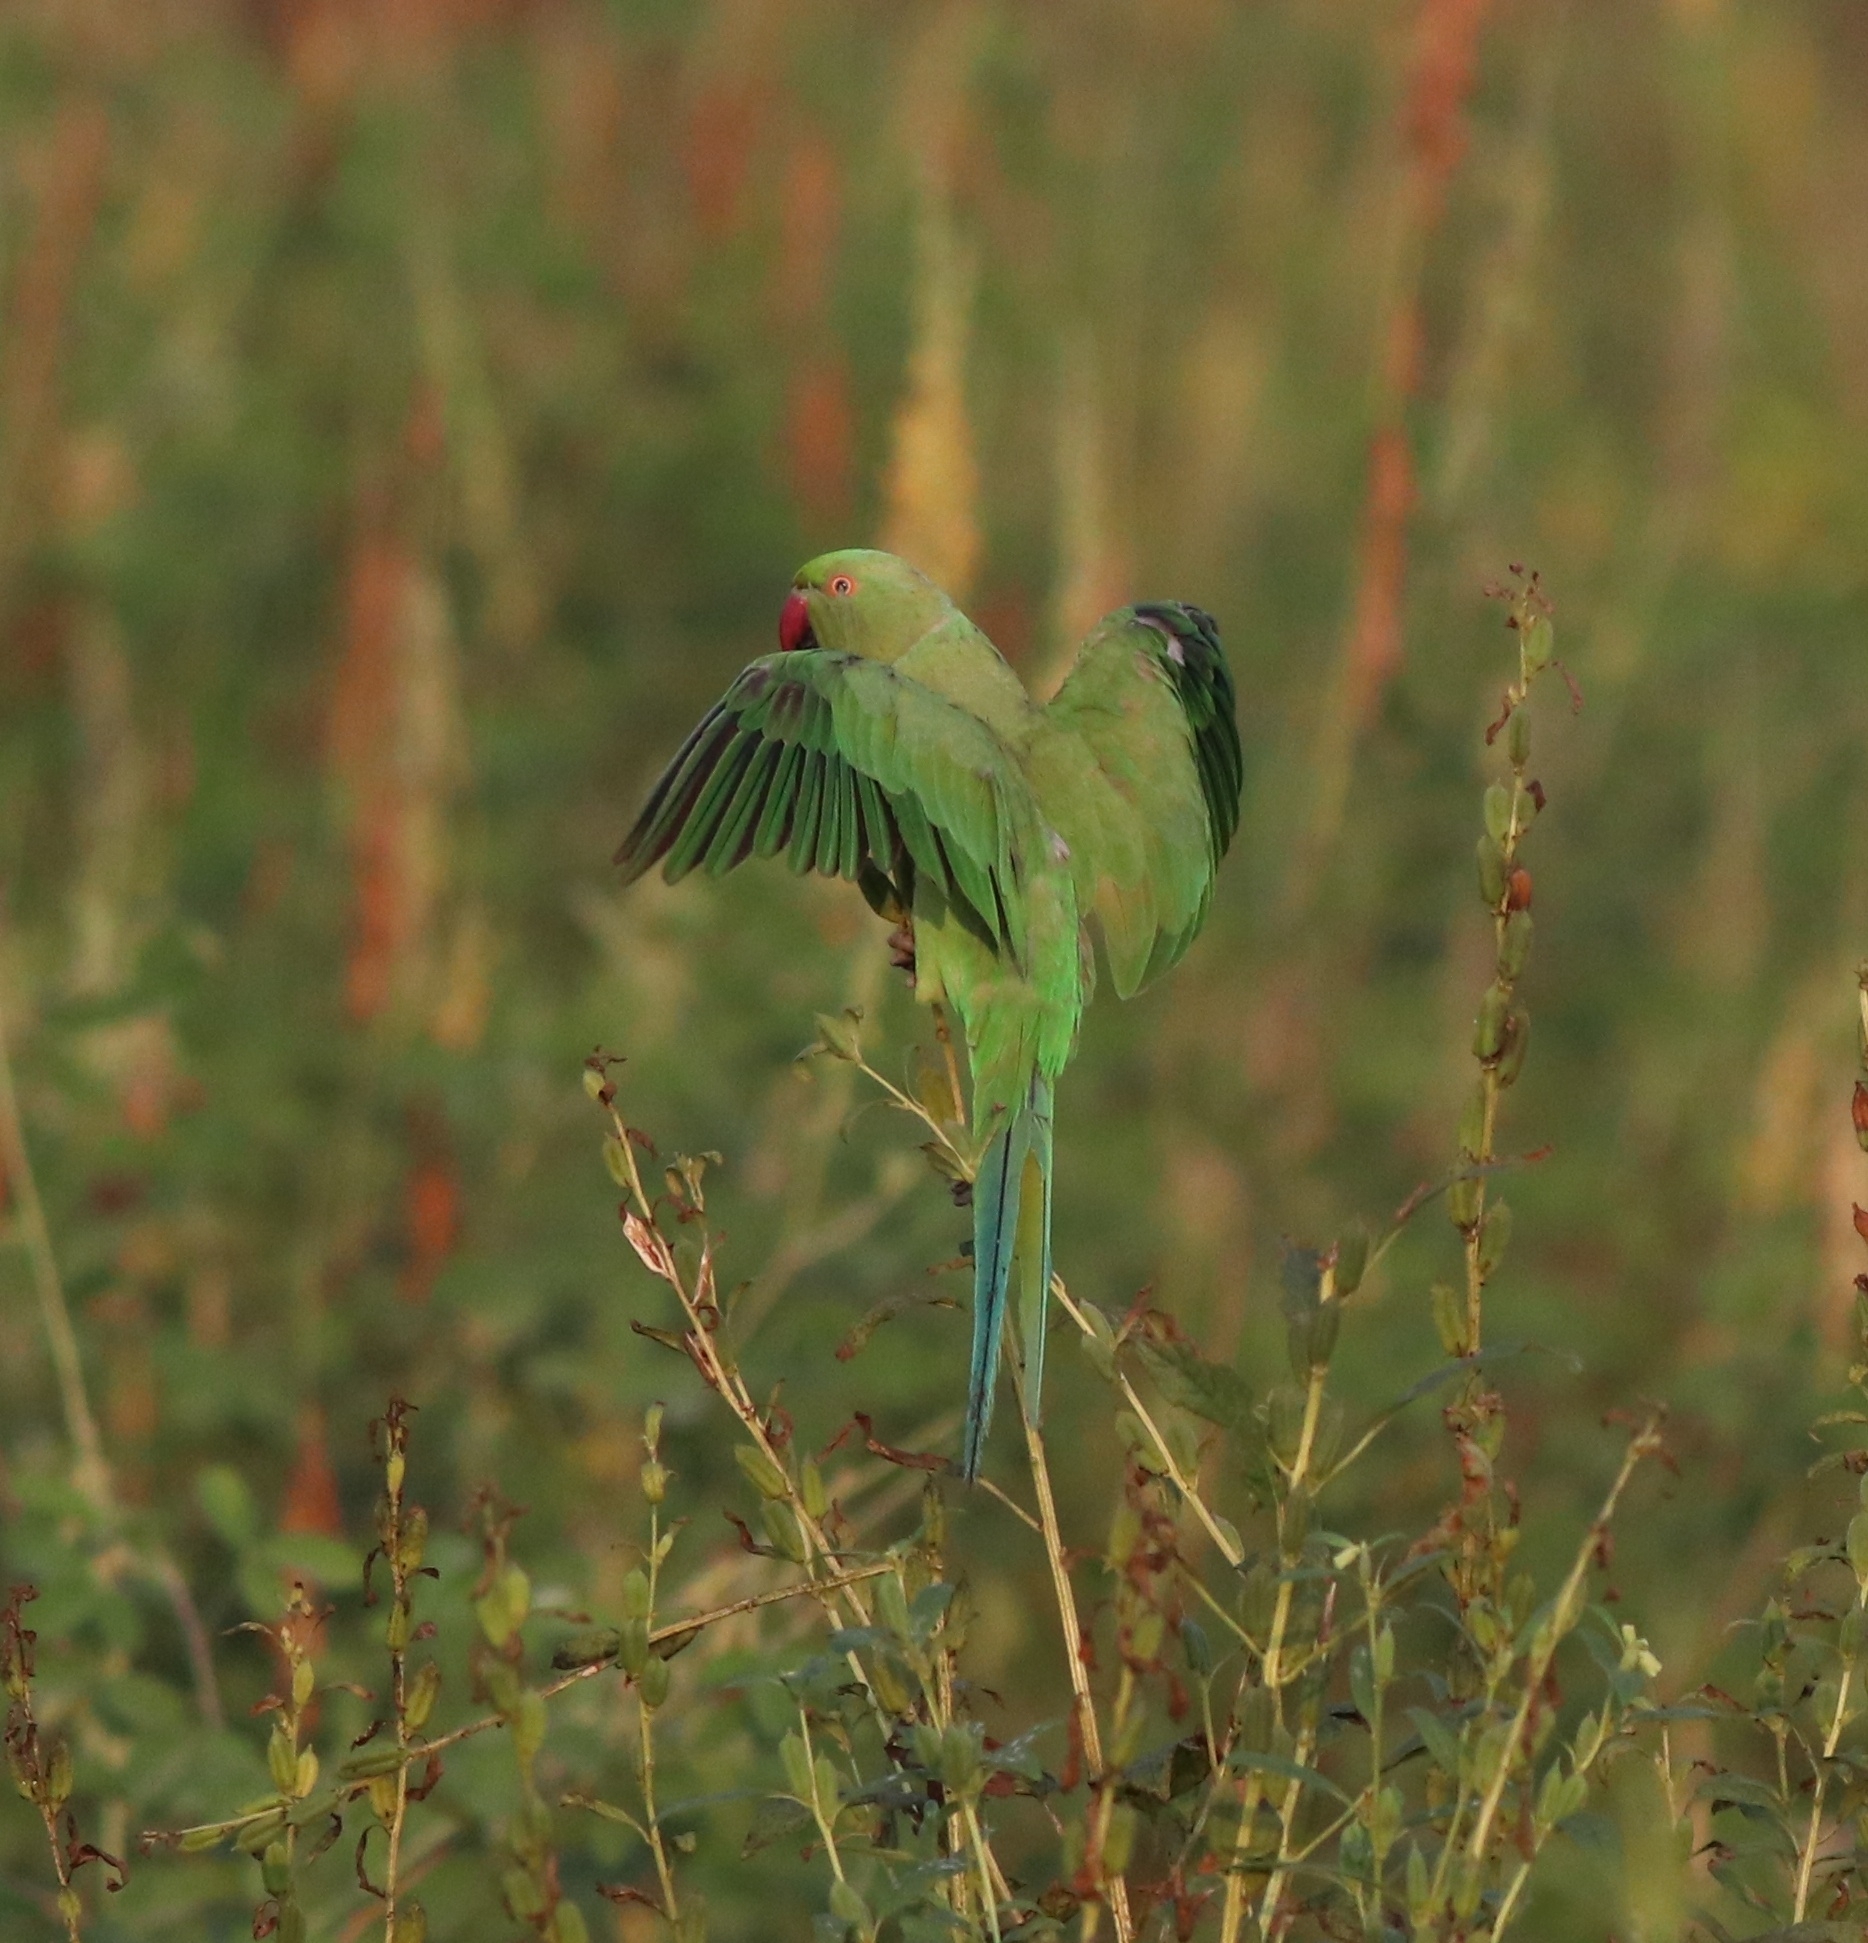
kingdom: Animalia
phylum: Chordata
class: Aves
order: Psittaciformes
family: Psittacidae
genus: Psittacula
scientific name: Psittacula krameri
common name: Rose-ringed parakeet
